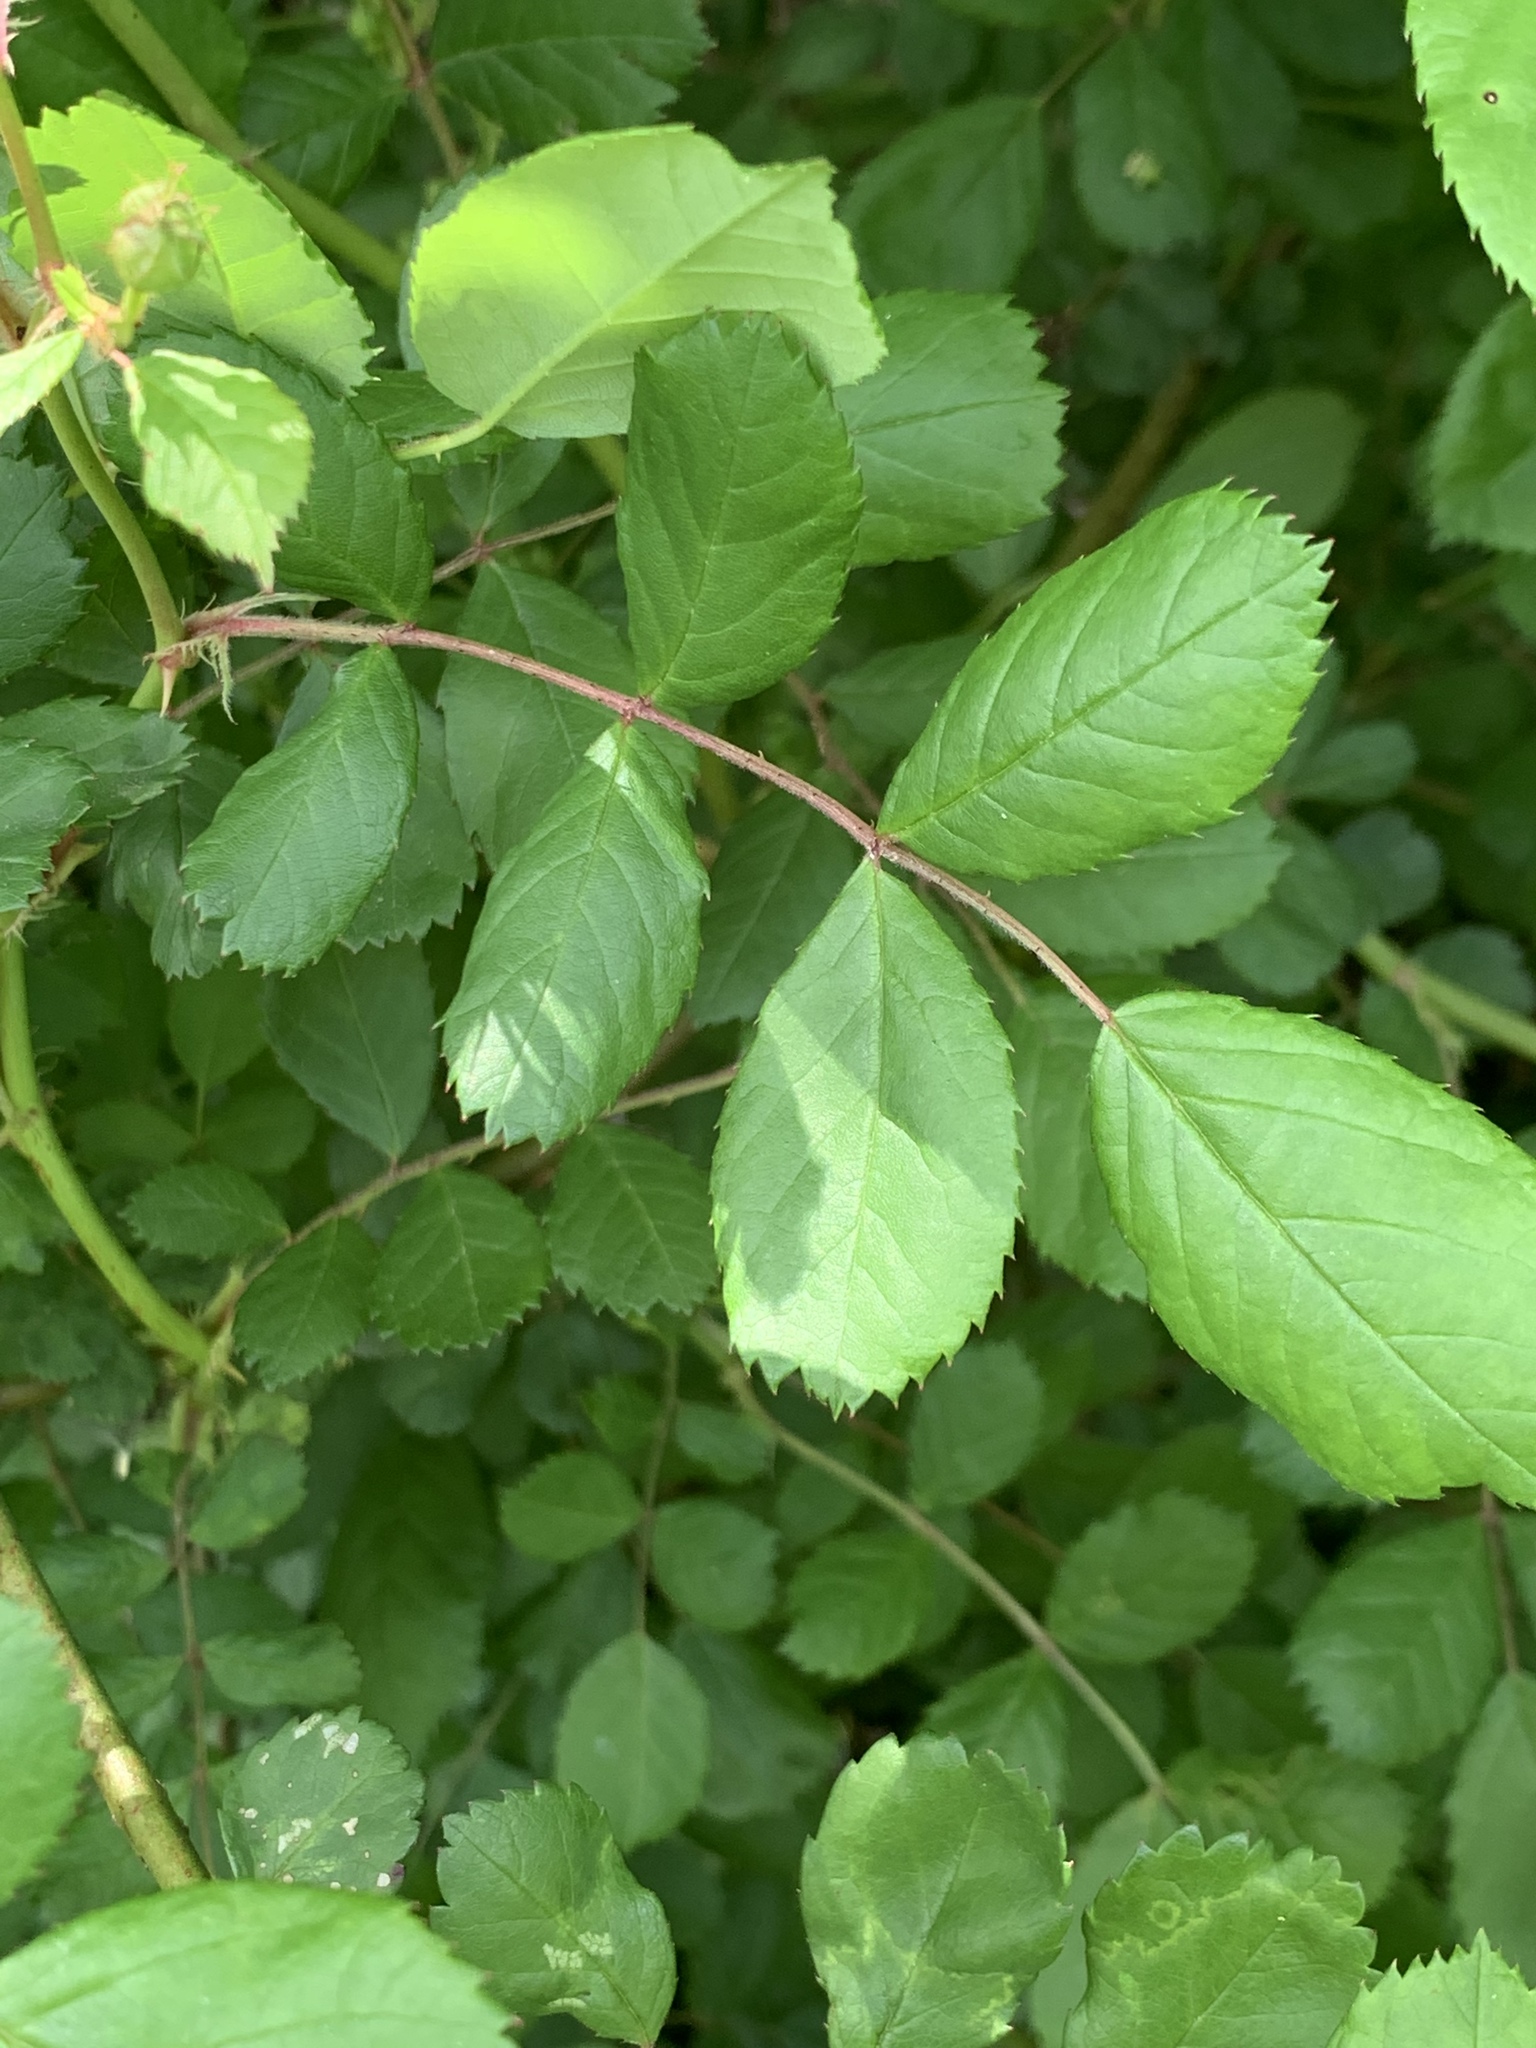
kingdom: Plantae
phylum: Tracheophyta
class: Magnoliopsida
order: Rosales
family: Rosaceae
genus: Rosa
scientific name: Rosa multiflora
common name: Multiflora rose
